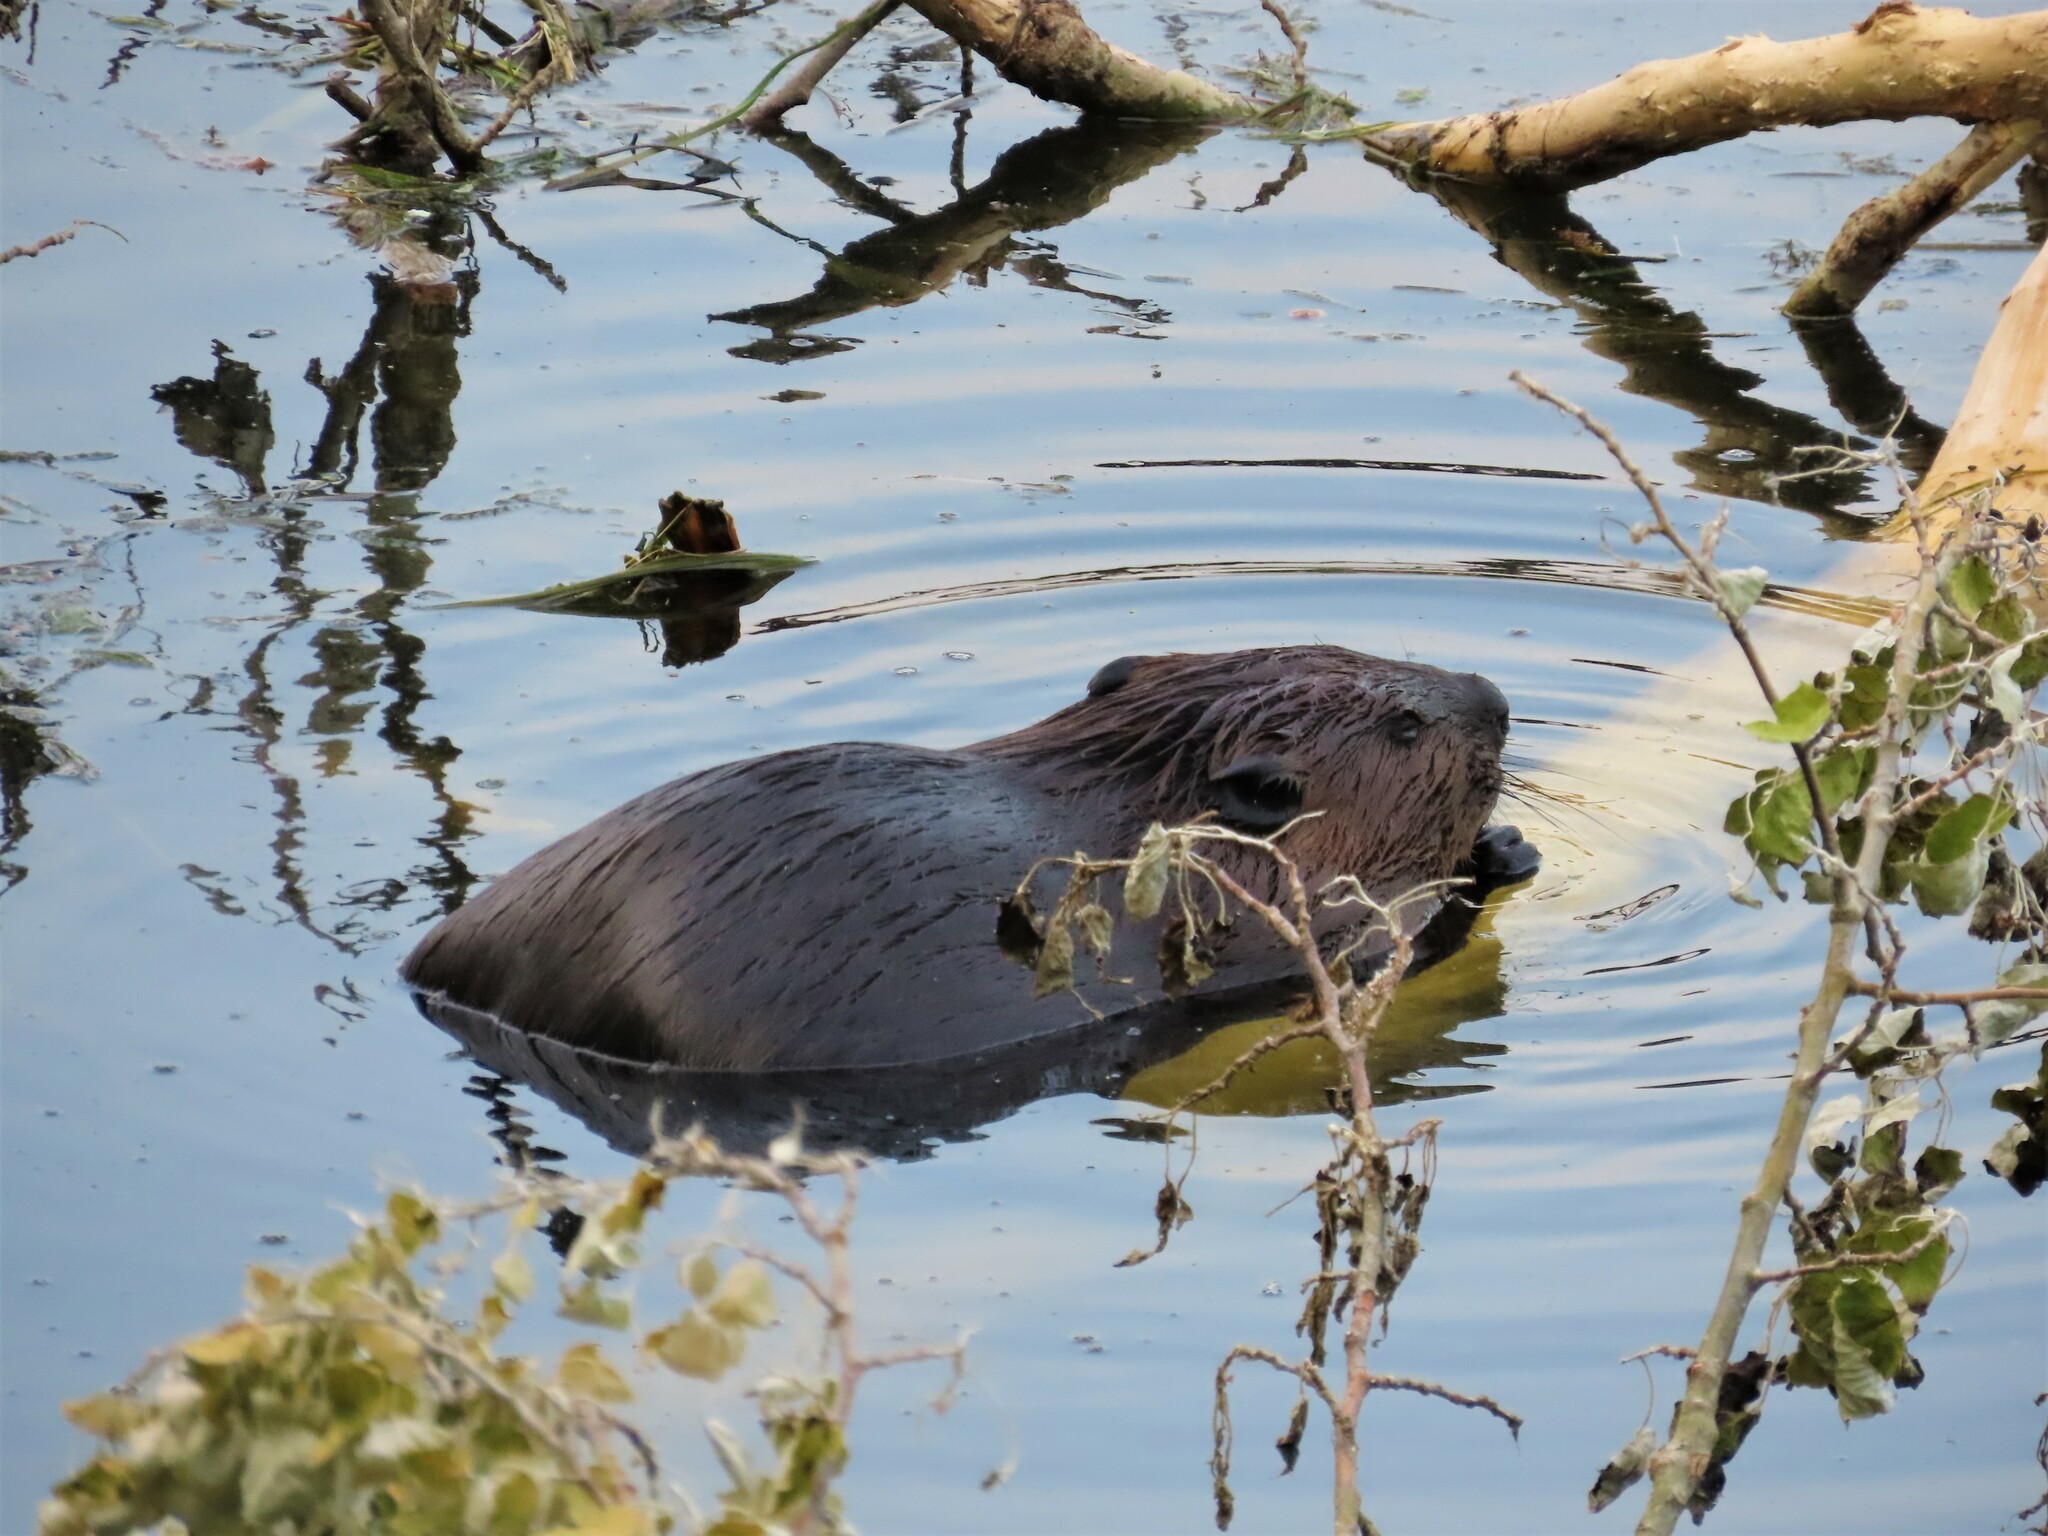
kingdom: Animalia
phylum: Chordata
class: Mammalia
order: Rodentia
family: Castoridae
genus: Castor
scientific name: Castor canadensis
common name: American beaver
